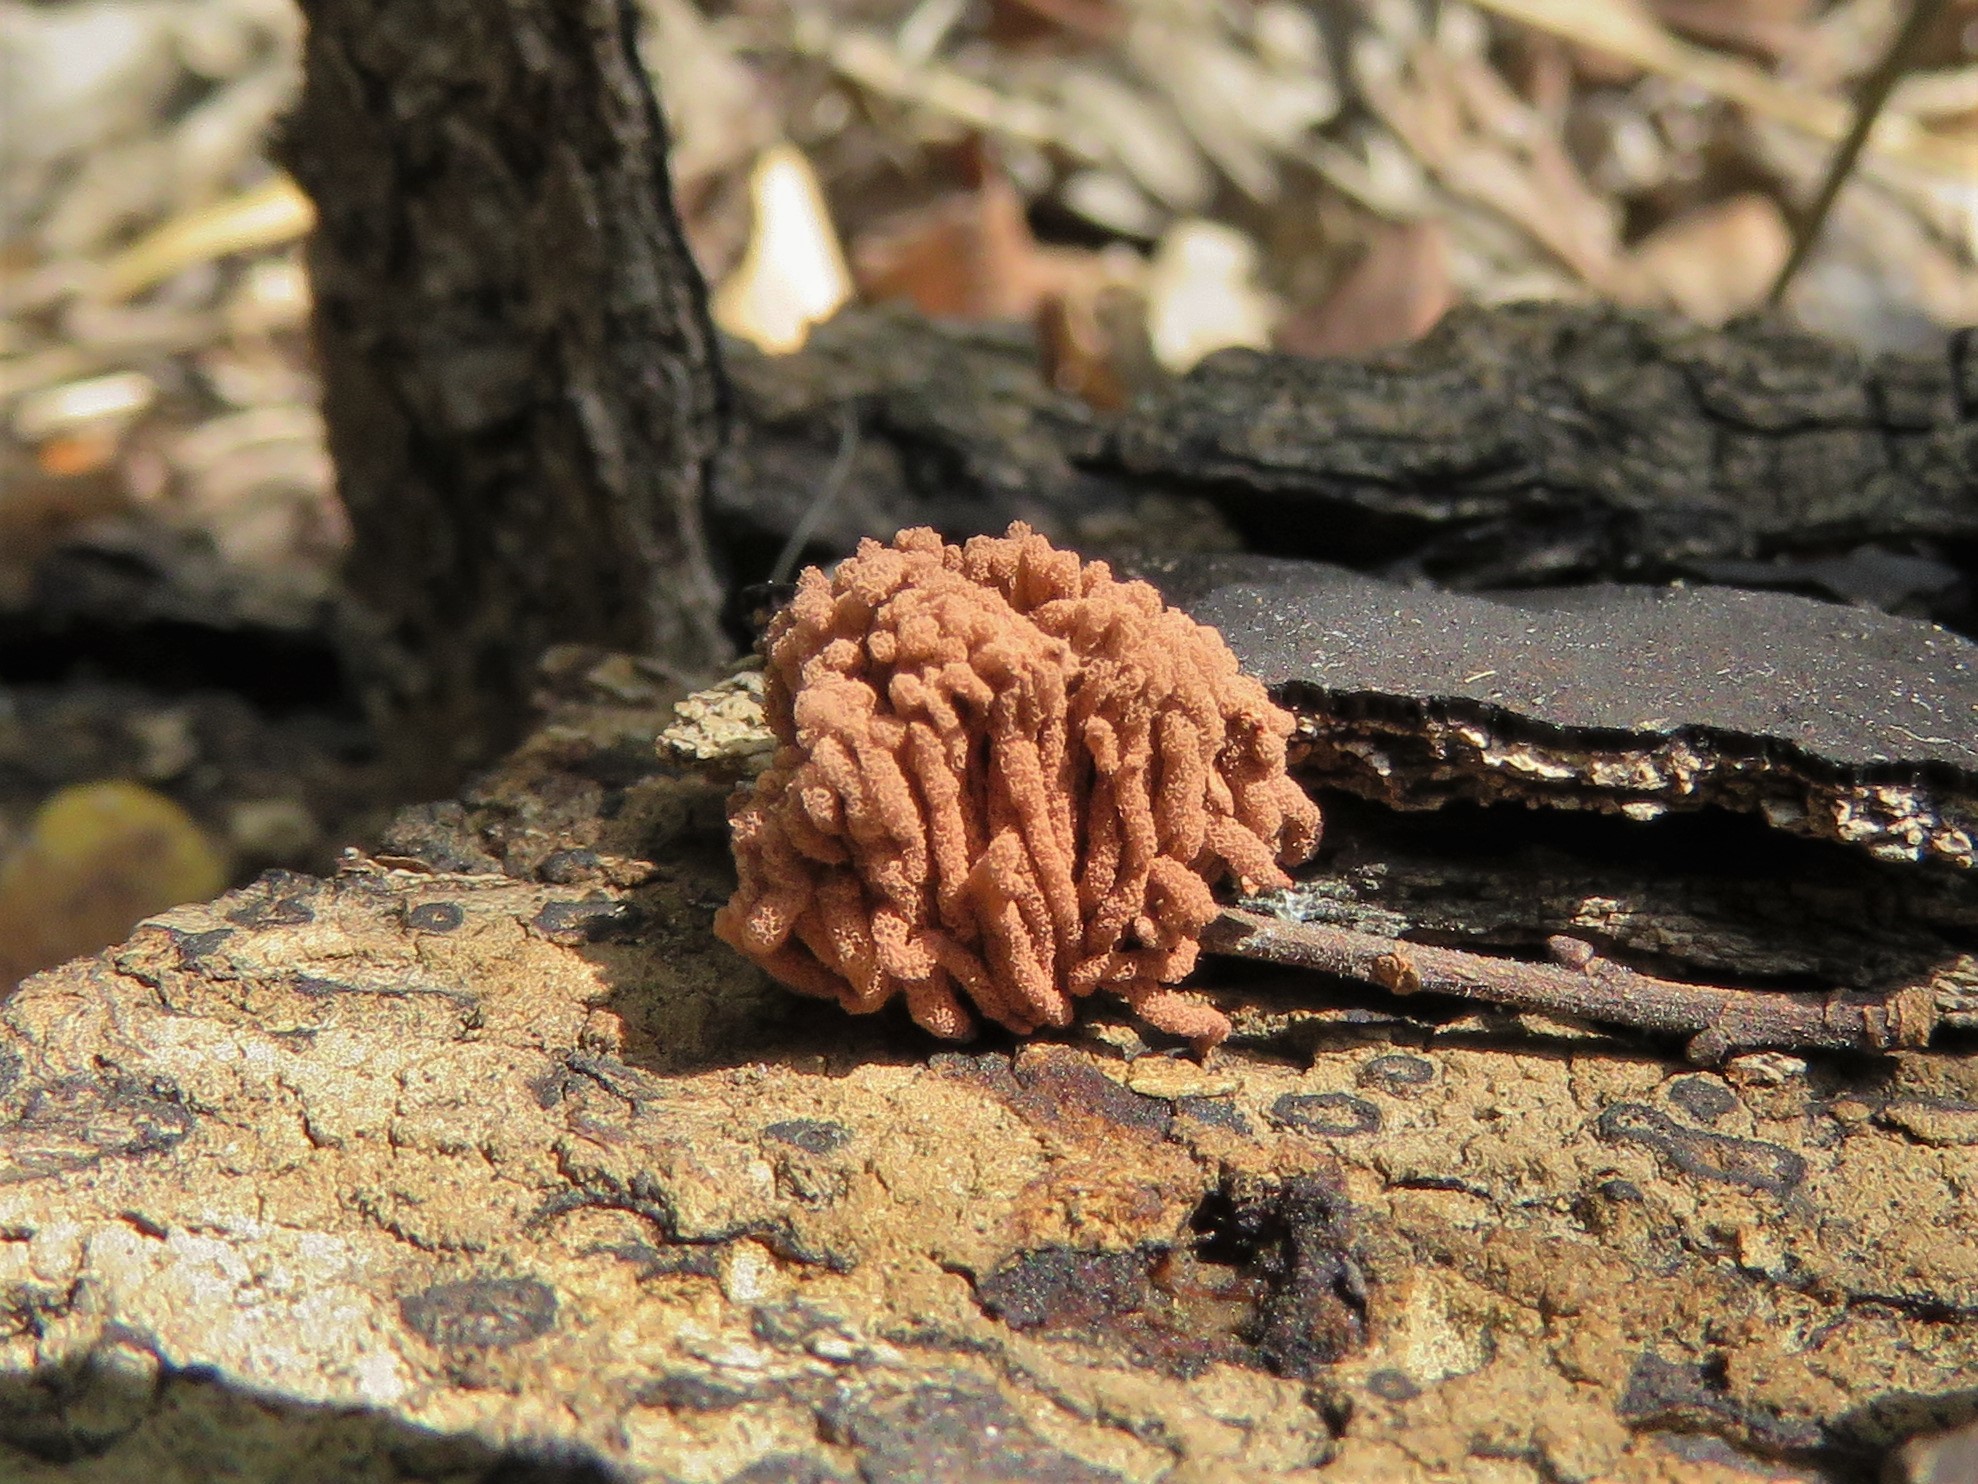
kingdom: Protozoa
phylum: Mycetozoa
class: Myxomycetes
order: Trichiales
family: Arcyriaceae
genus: Arcyria
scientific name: Arcyria denudata
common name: Carnival candy slime mold
